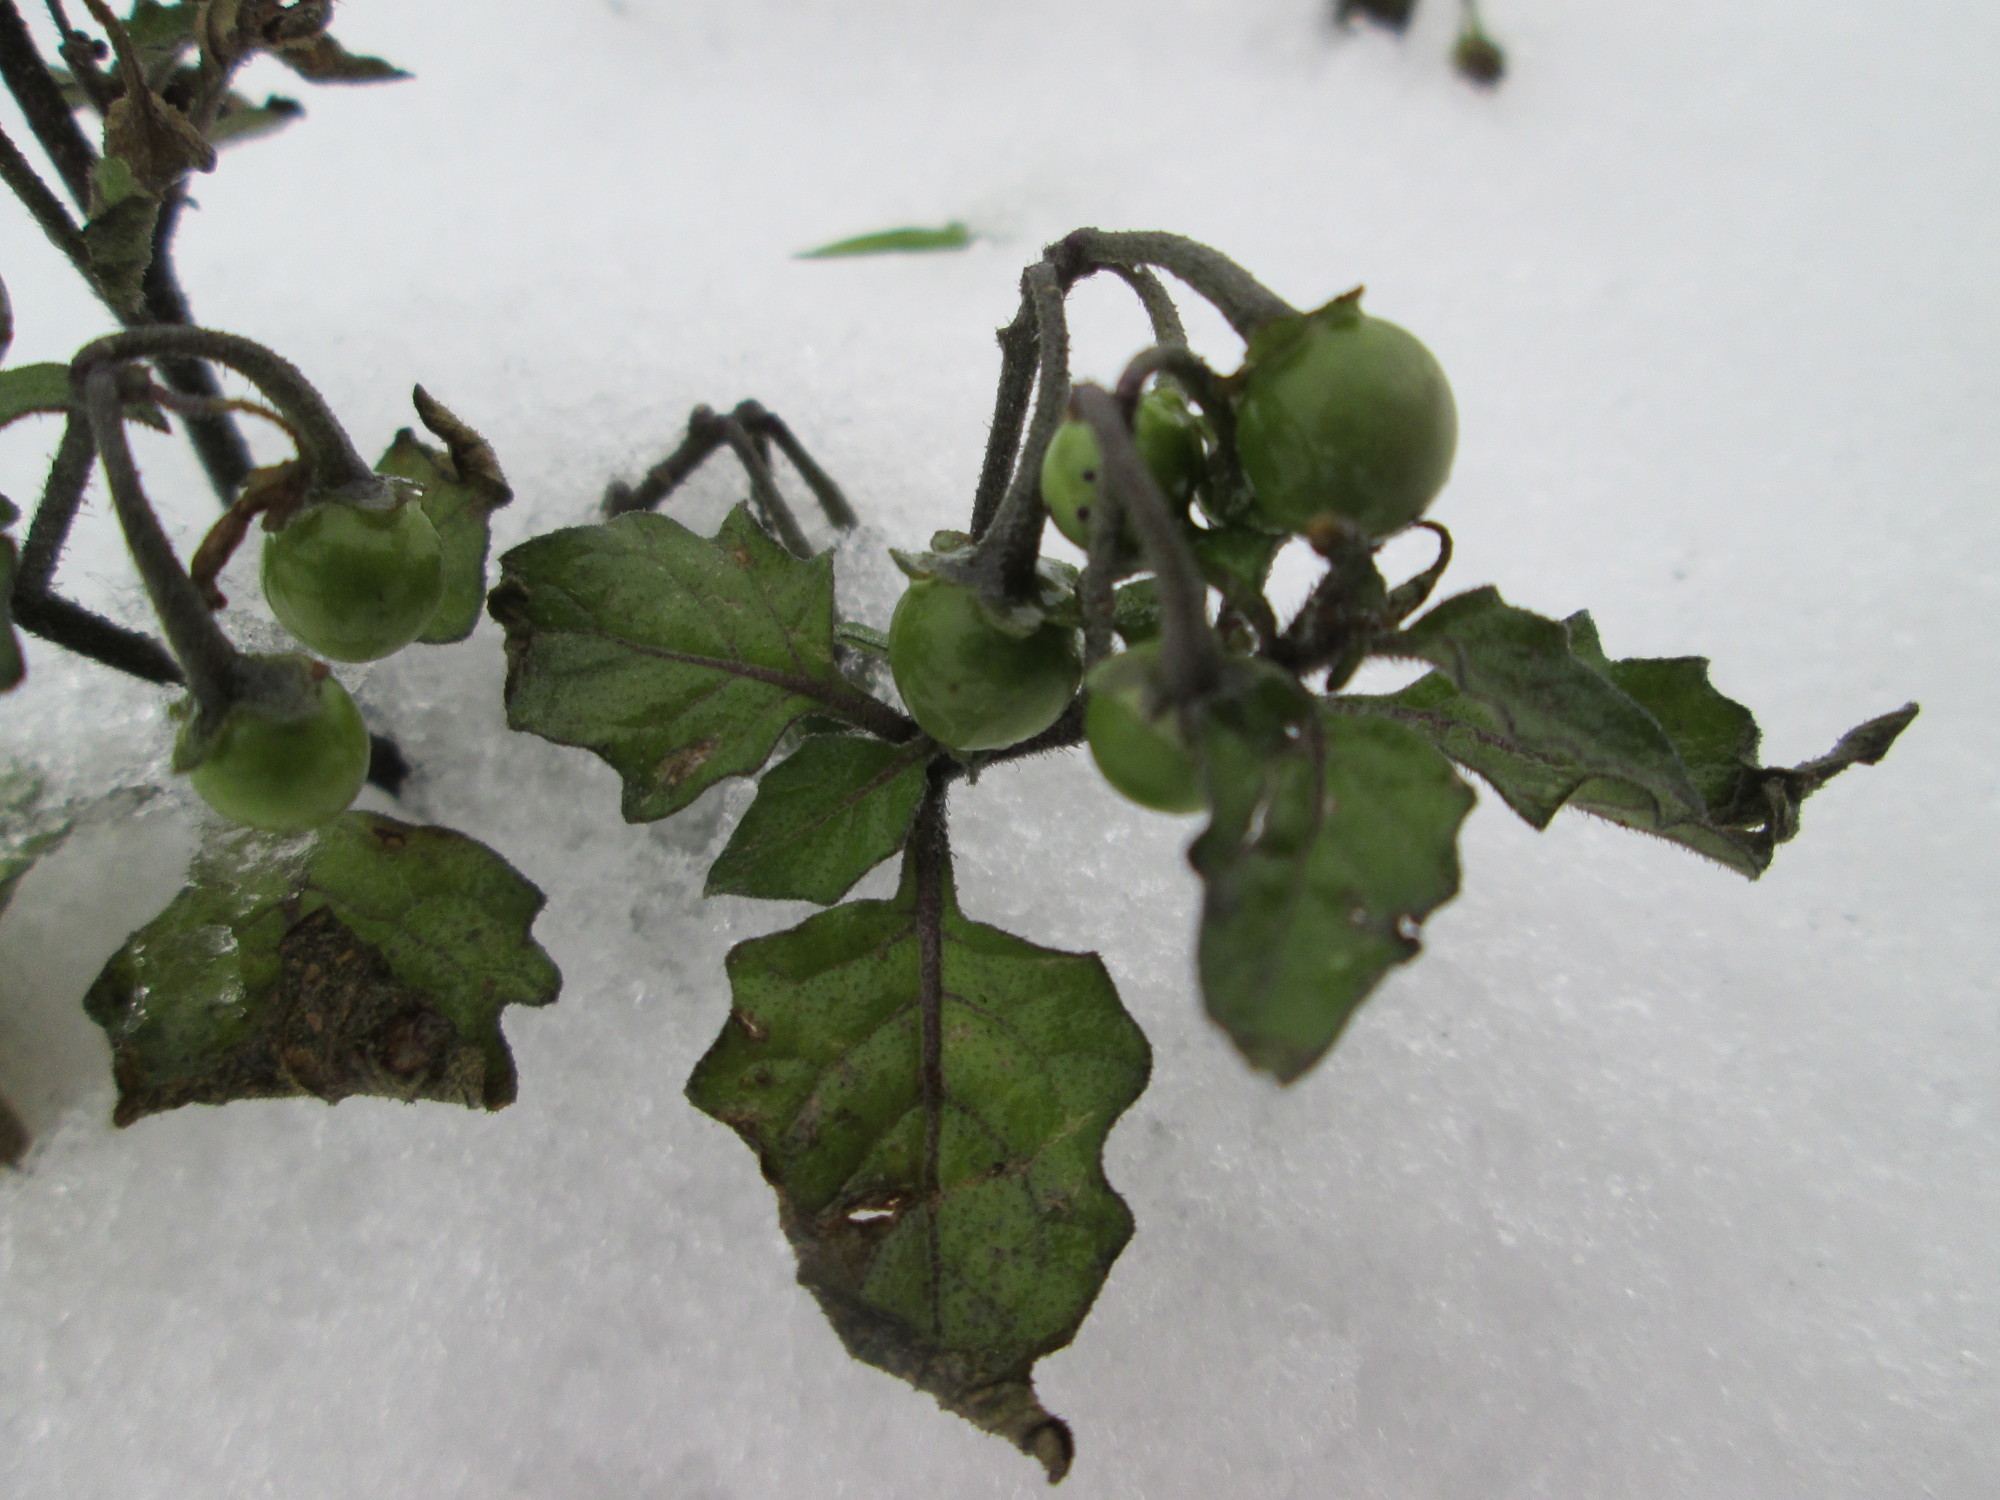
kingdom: Plantae
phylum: Tracheophyta
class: Magnoliopsida
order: Solanales
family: Solanaceae
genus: Solanum
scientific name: Solanum nigrum
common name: Black nightshade
